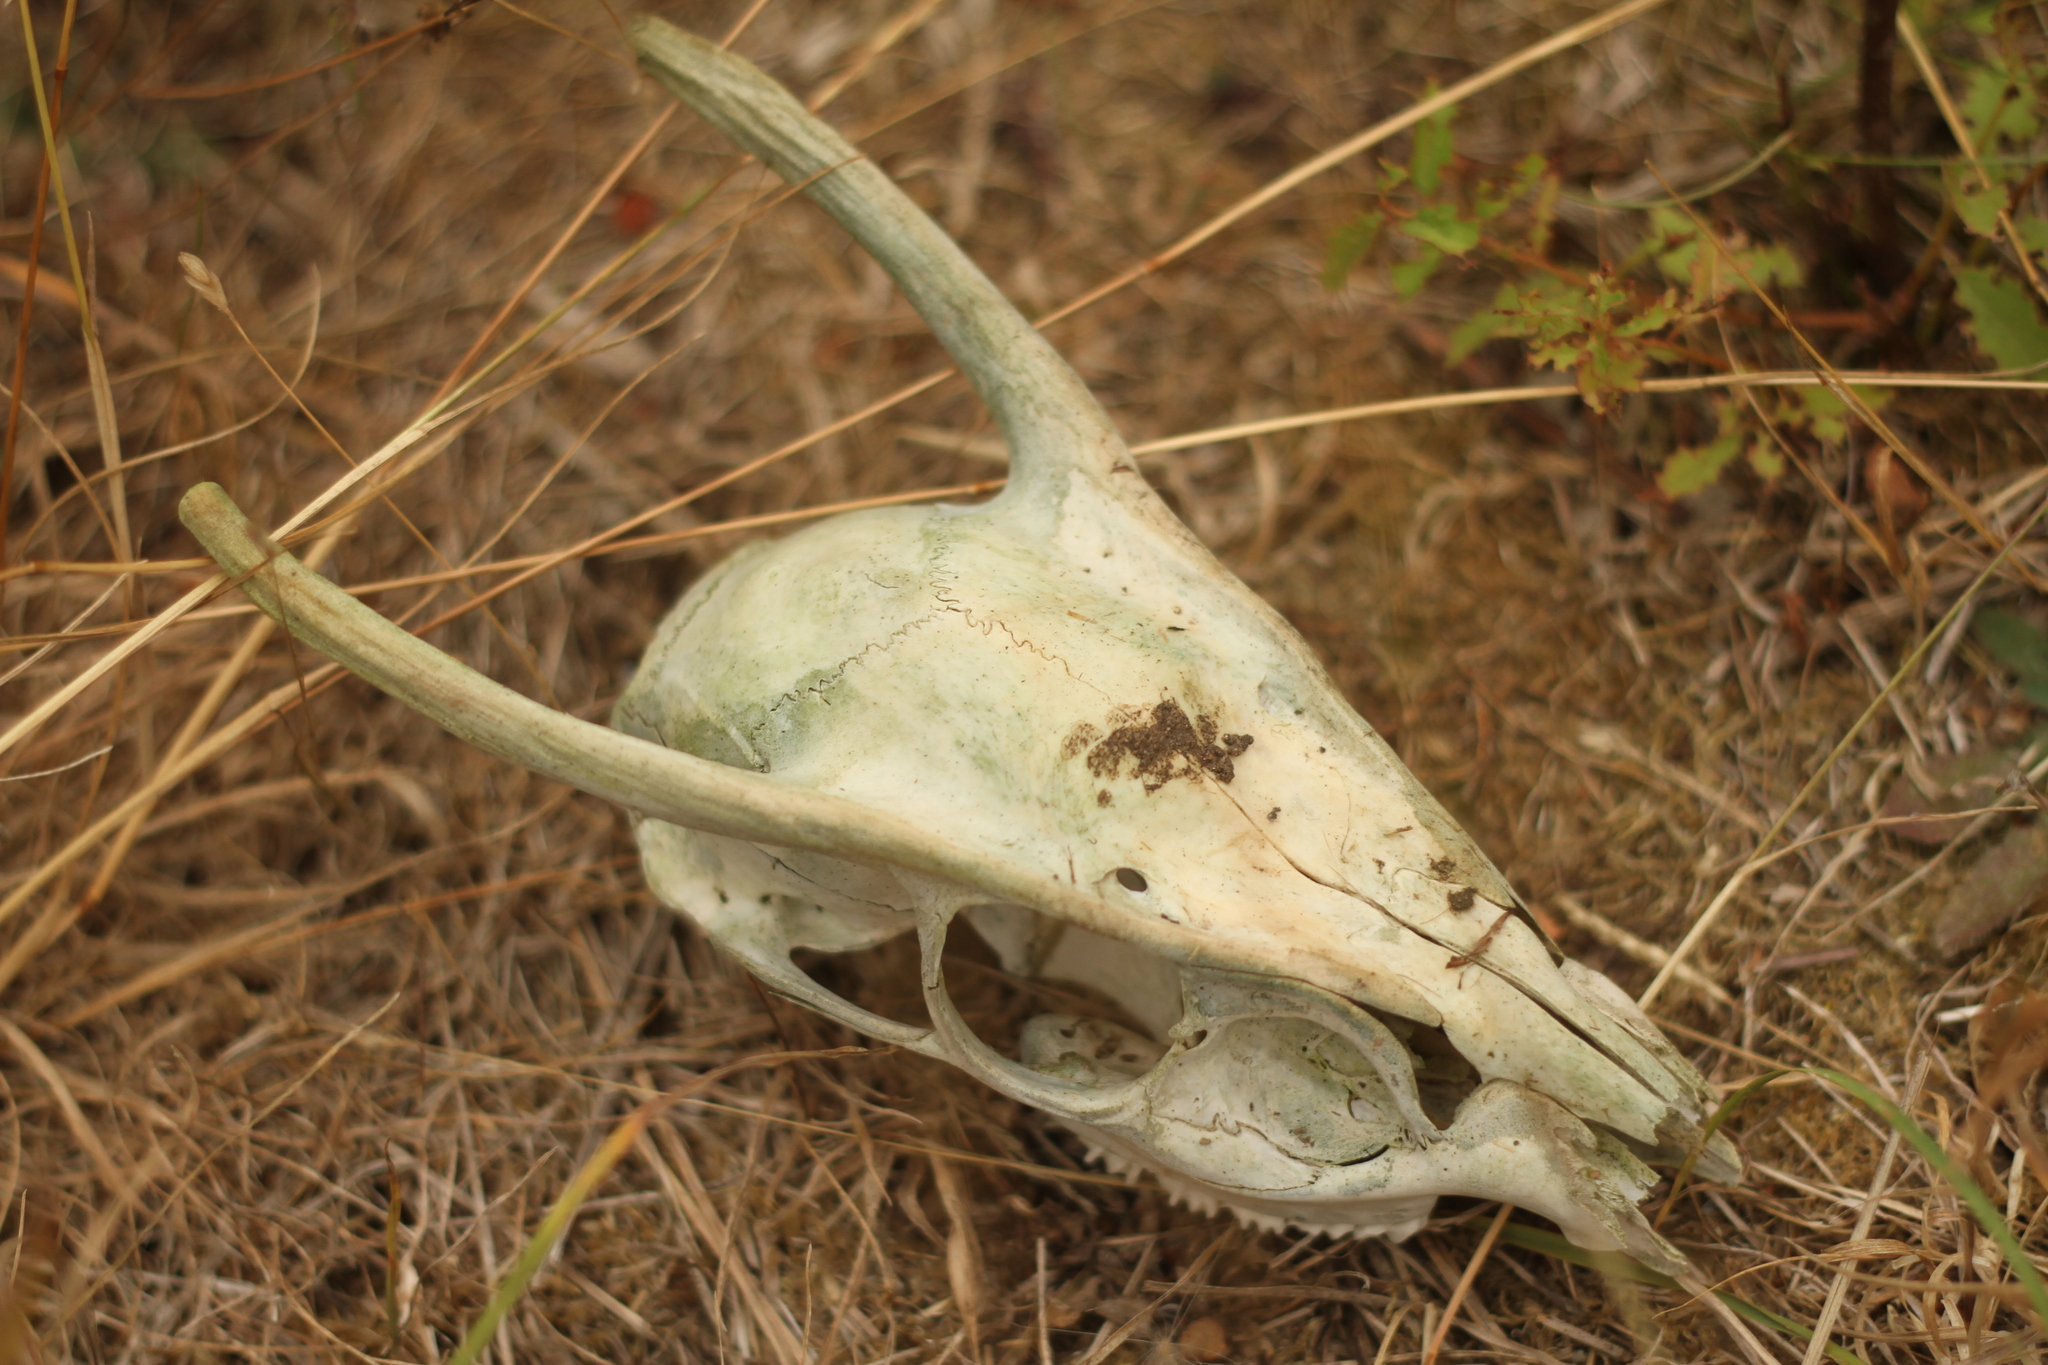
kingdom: Animalia
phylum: Chordata
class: Mammalia
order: Artiodactyla
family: Cervidae
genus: Muntiacus
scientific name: Muntiacus reevesi
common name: Reeves' muntjac
